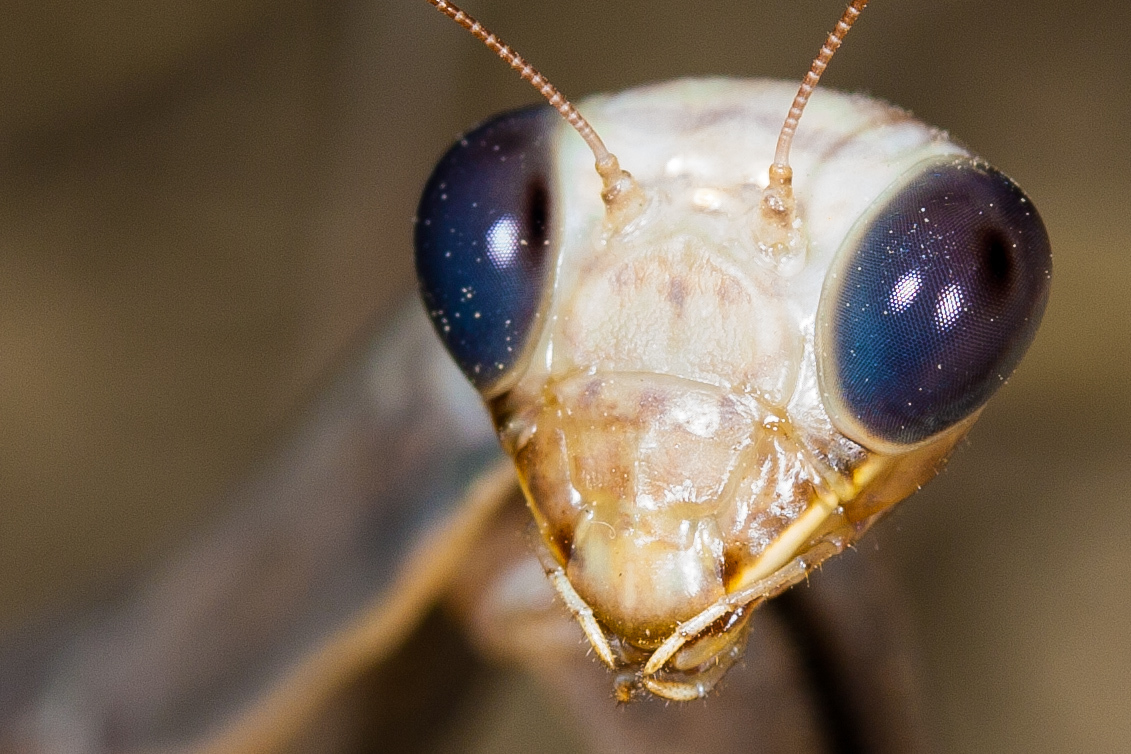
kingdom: Animalia
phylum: Arthropoda
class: Insecta
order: Mantodea
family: Mantidae
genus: Mantis
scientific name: Mantis religiosa
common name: Praying mantis
